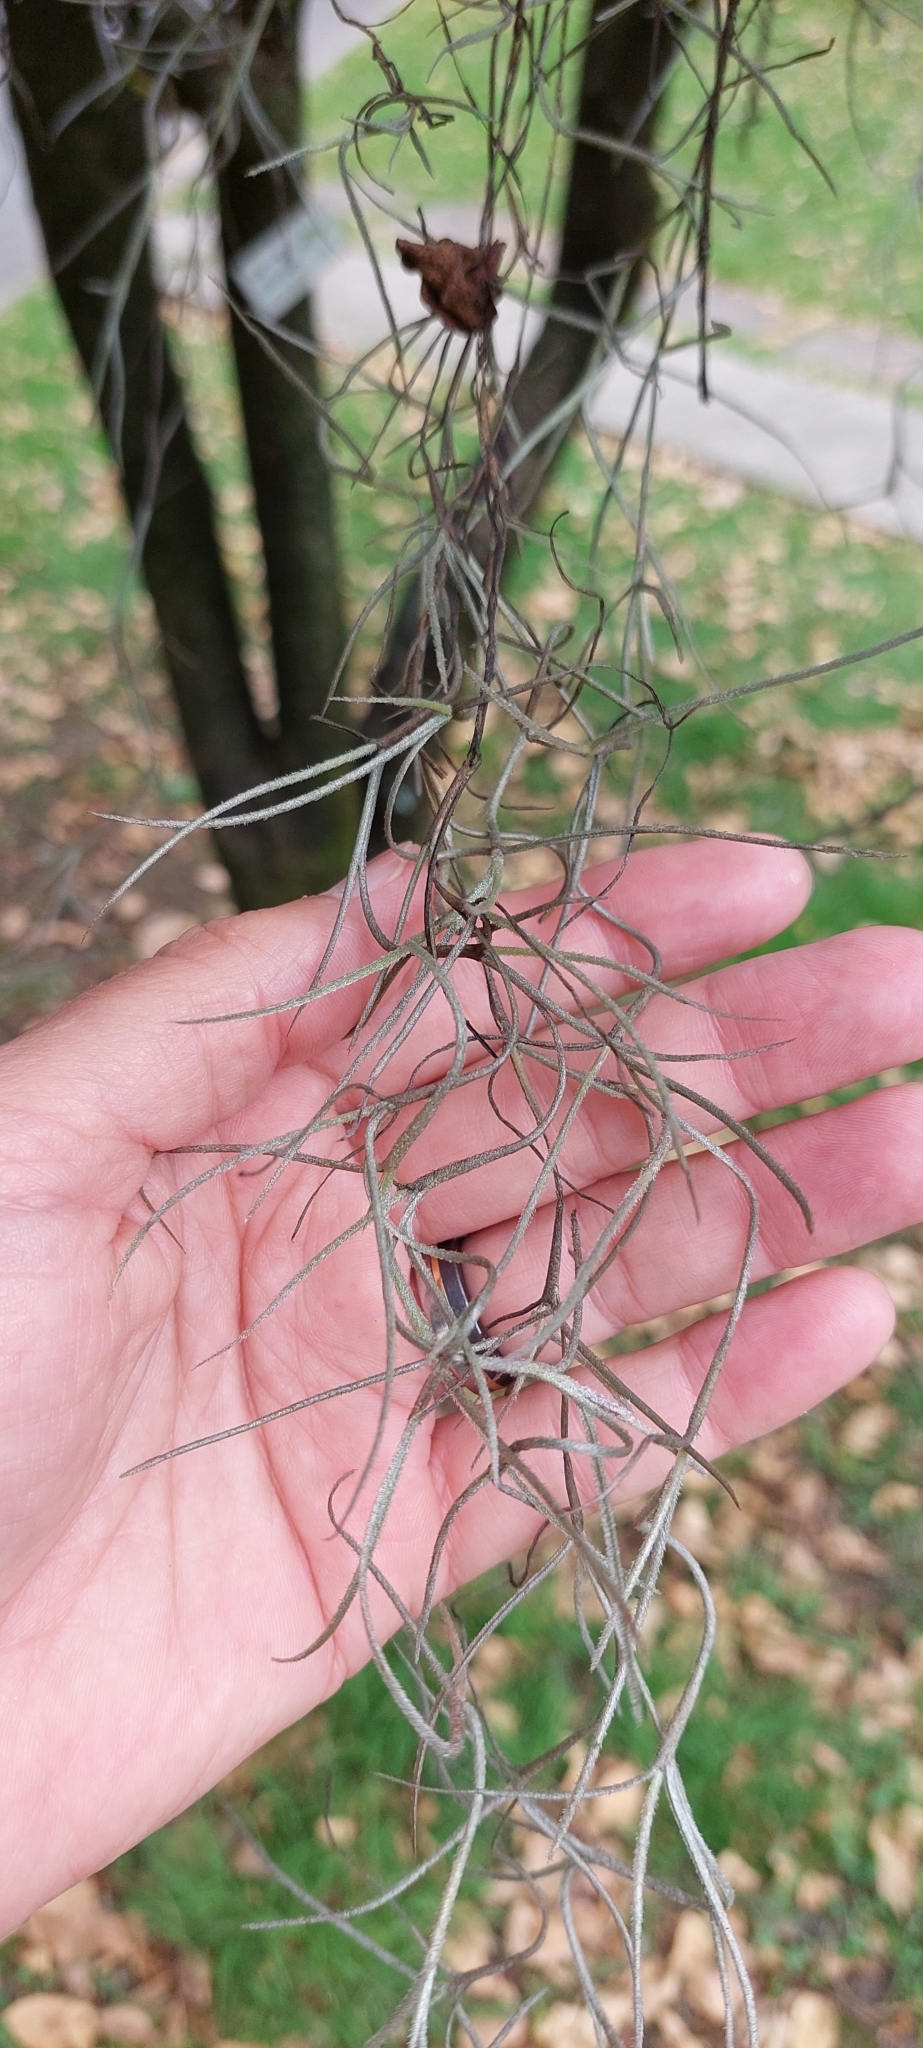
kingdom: Plantae
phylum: Tracheophyta
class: Liliopsida
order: Poales
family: Bromeliaceae
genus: Tillandsia
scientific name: Tillandsia usneoides
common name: Spanish moss
